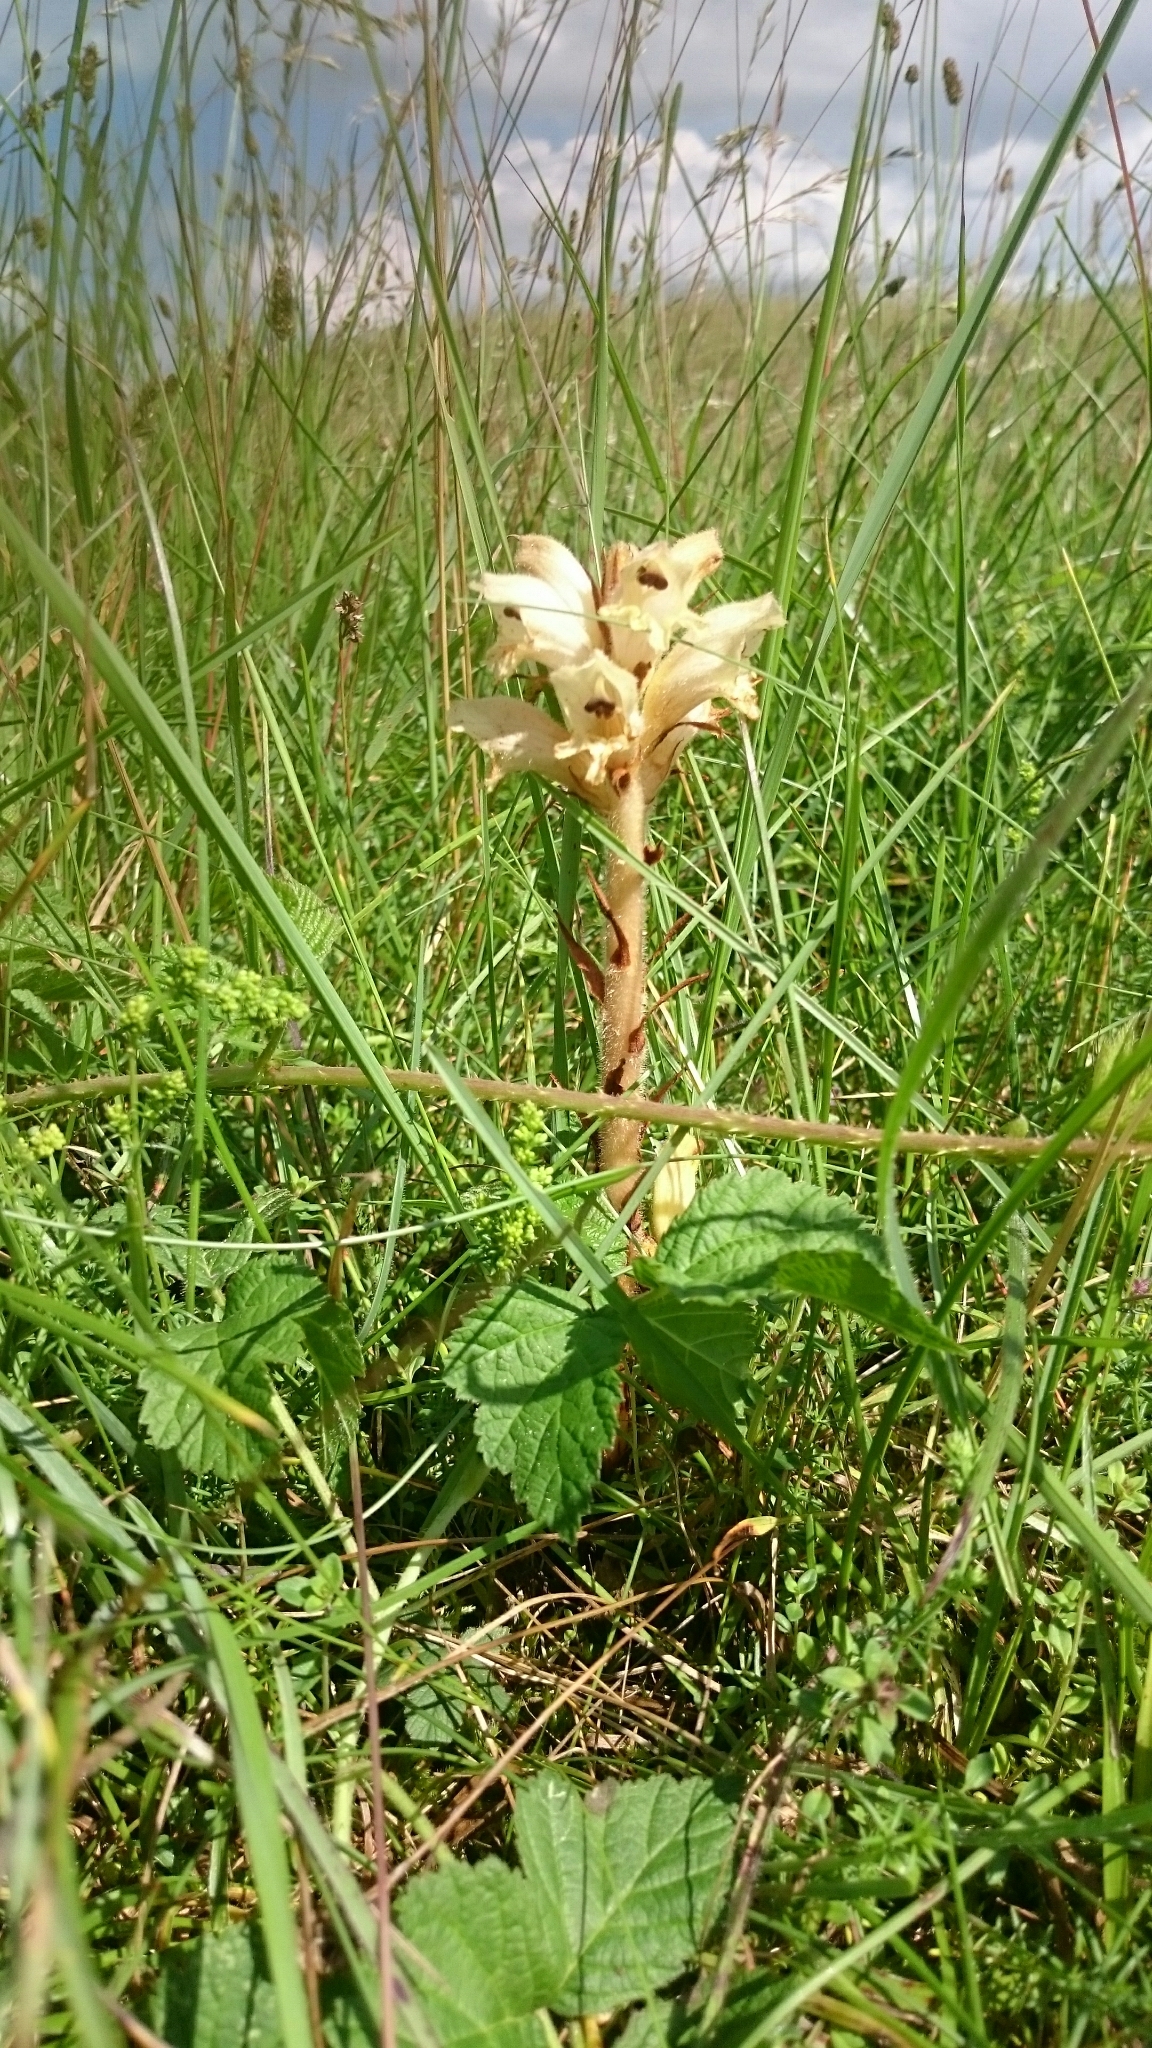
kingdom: Plantae
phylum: Tracheophyta
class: Magnoliopsida
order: Lamiales
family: Orobanchaceae
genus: Orobanche
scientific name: Orobanche caryophyllacea
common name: Bedstraw broomrape
